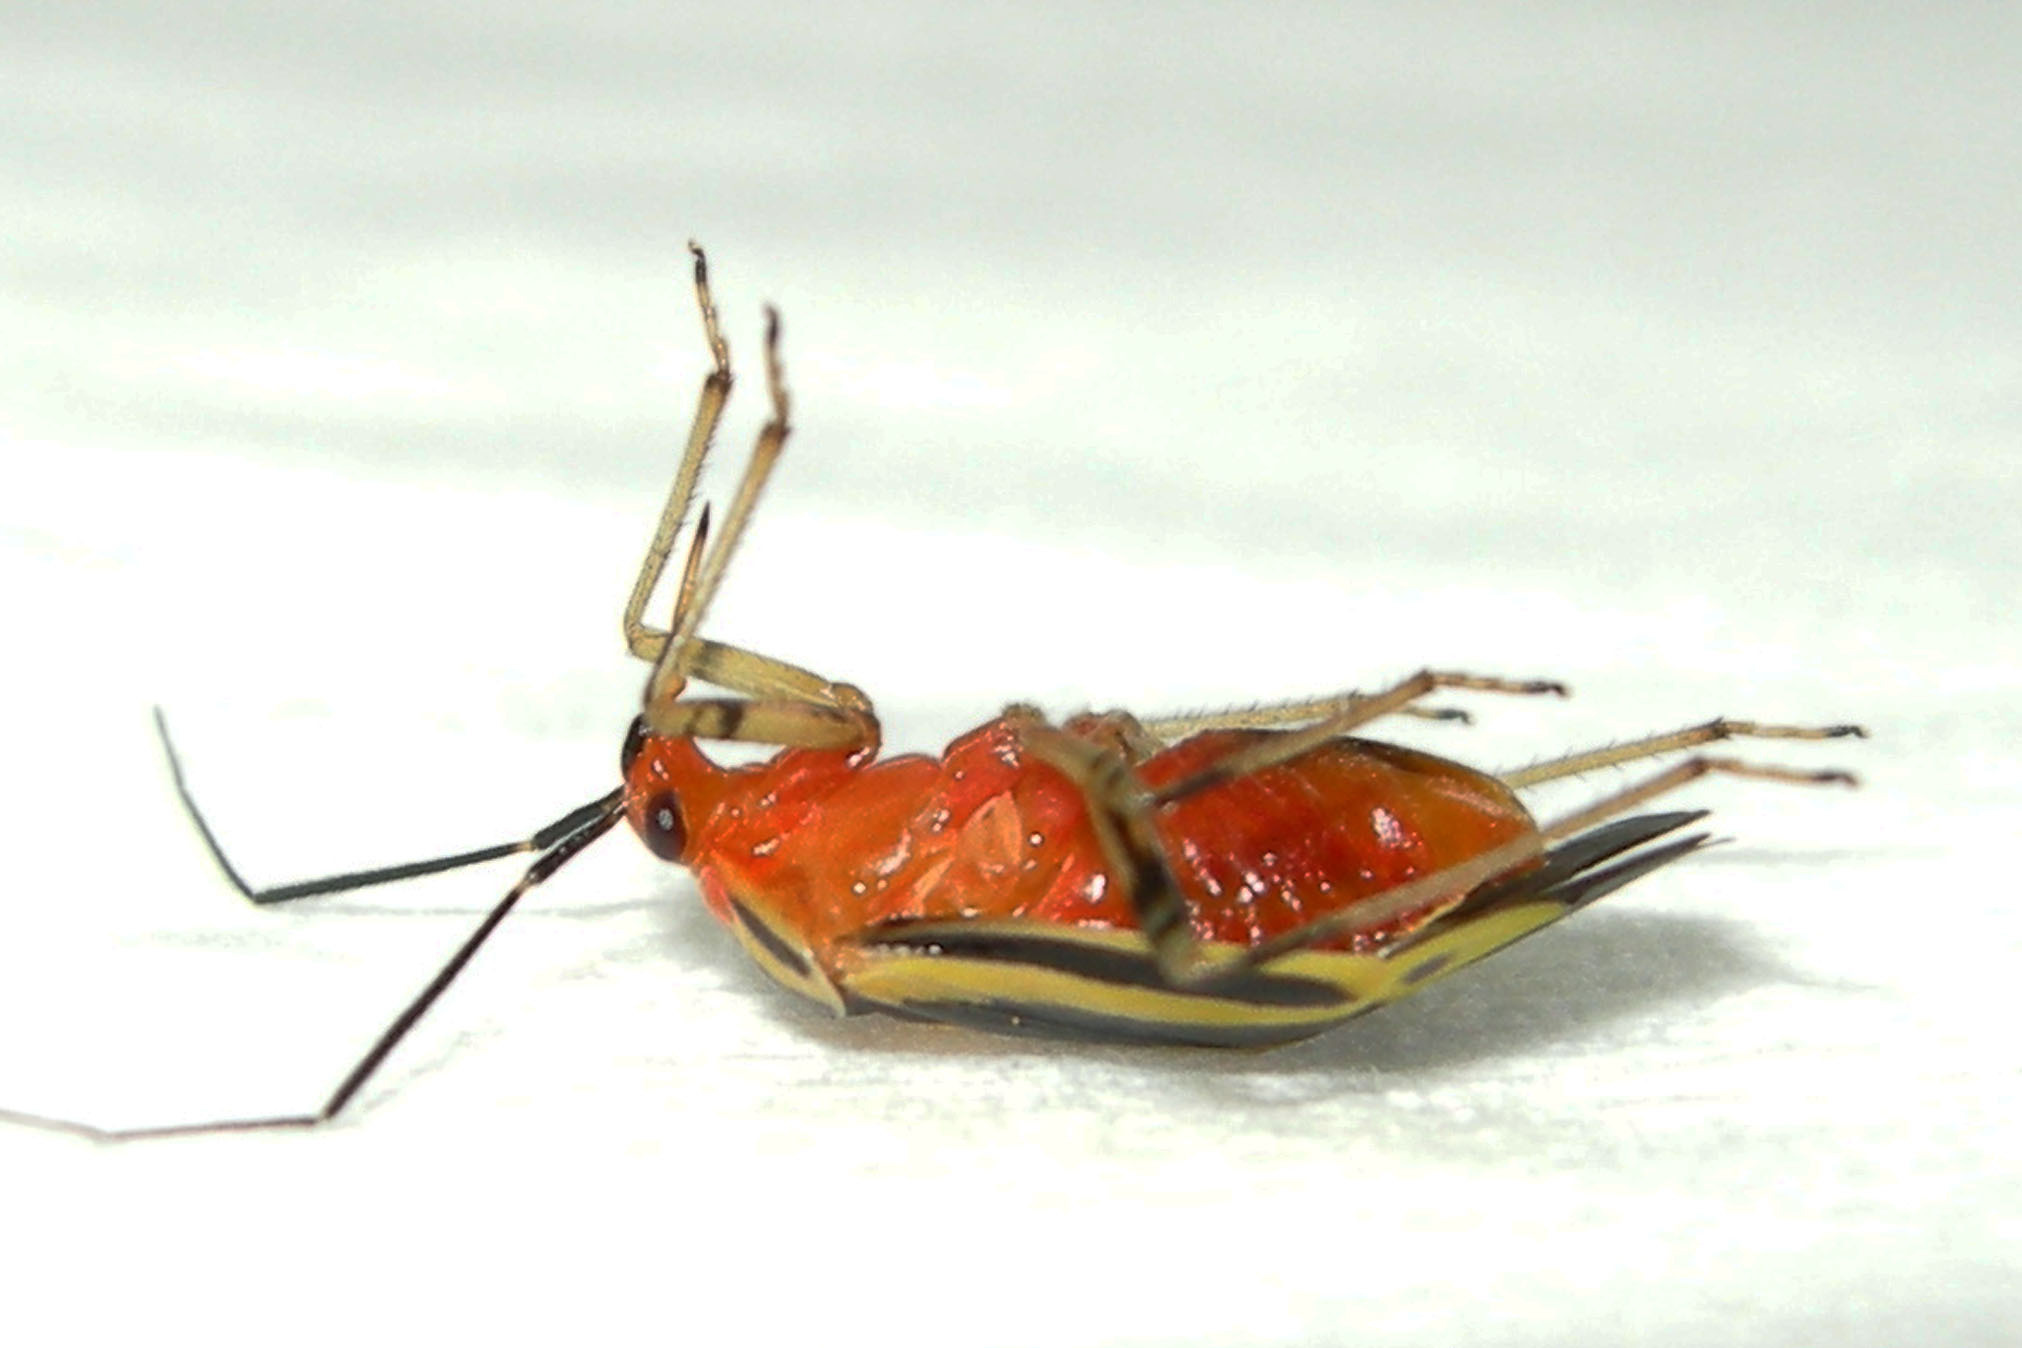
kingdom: Animalia
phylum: Arthropoda
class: Insecta
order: Hemiptera
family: Miridae
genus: Poecilocapsus
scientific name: Poecilocapsus lineatus
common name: Four-lined plant bug
